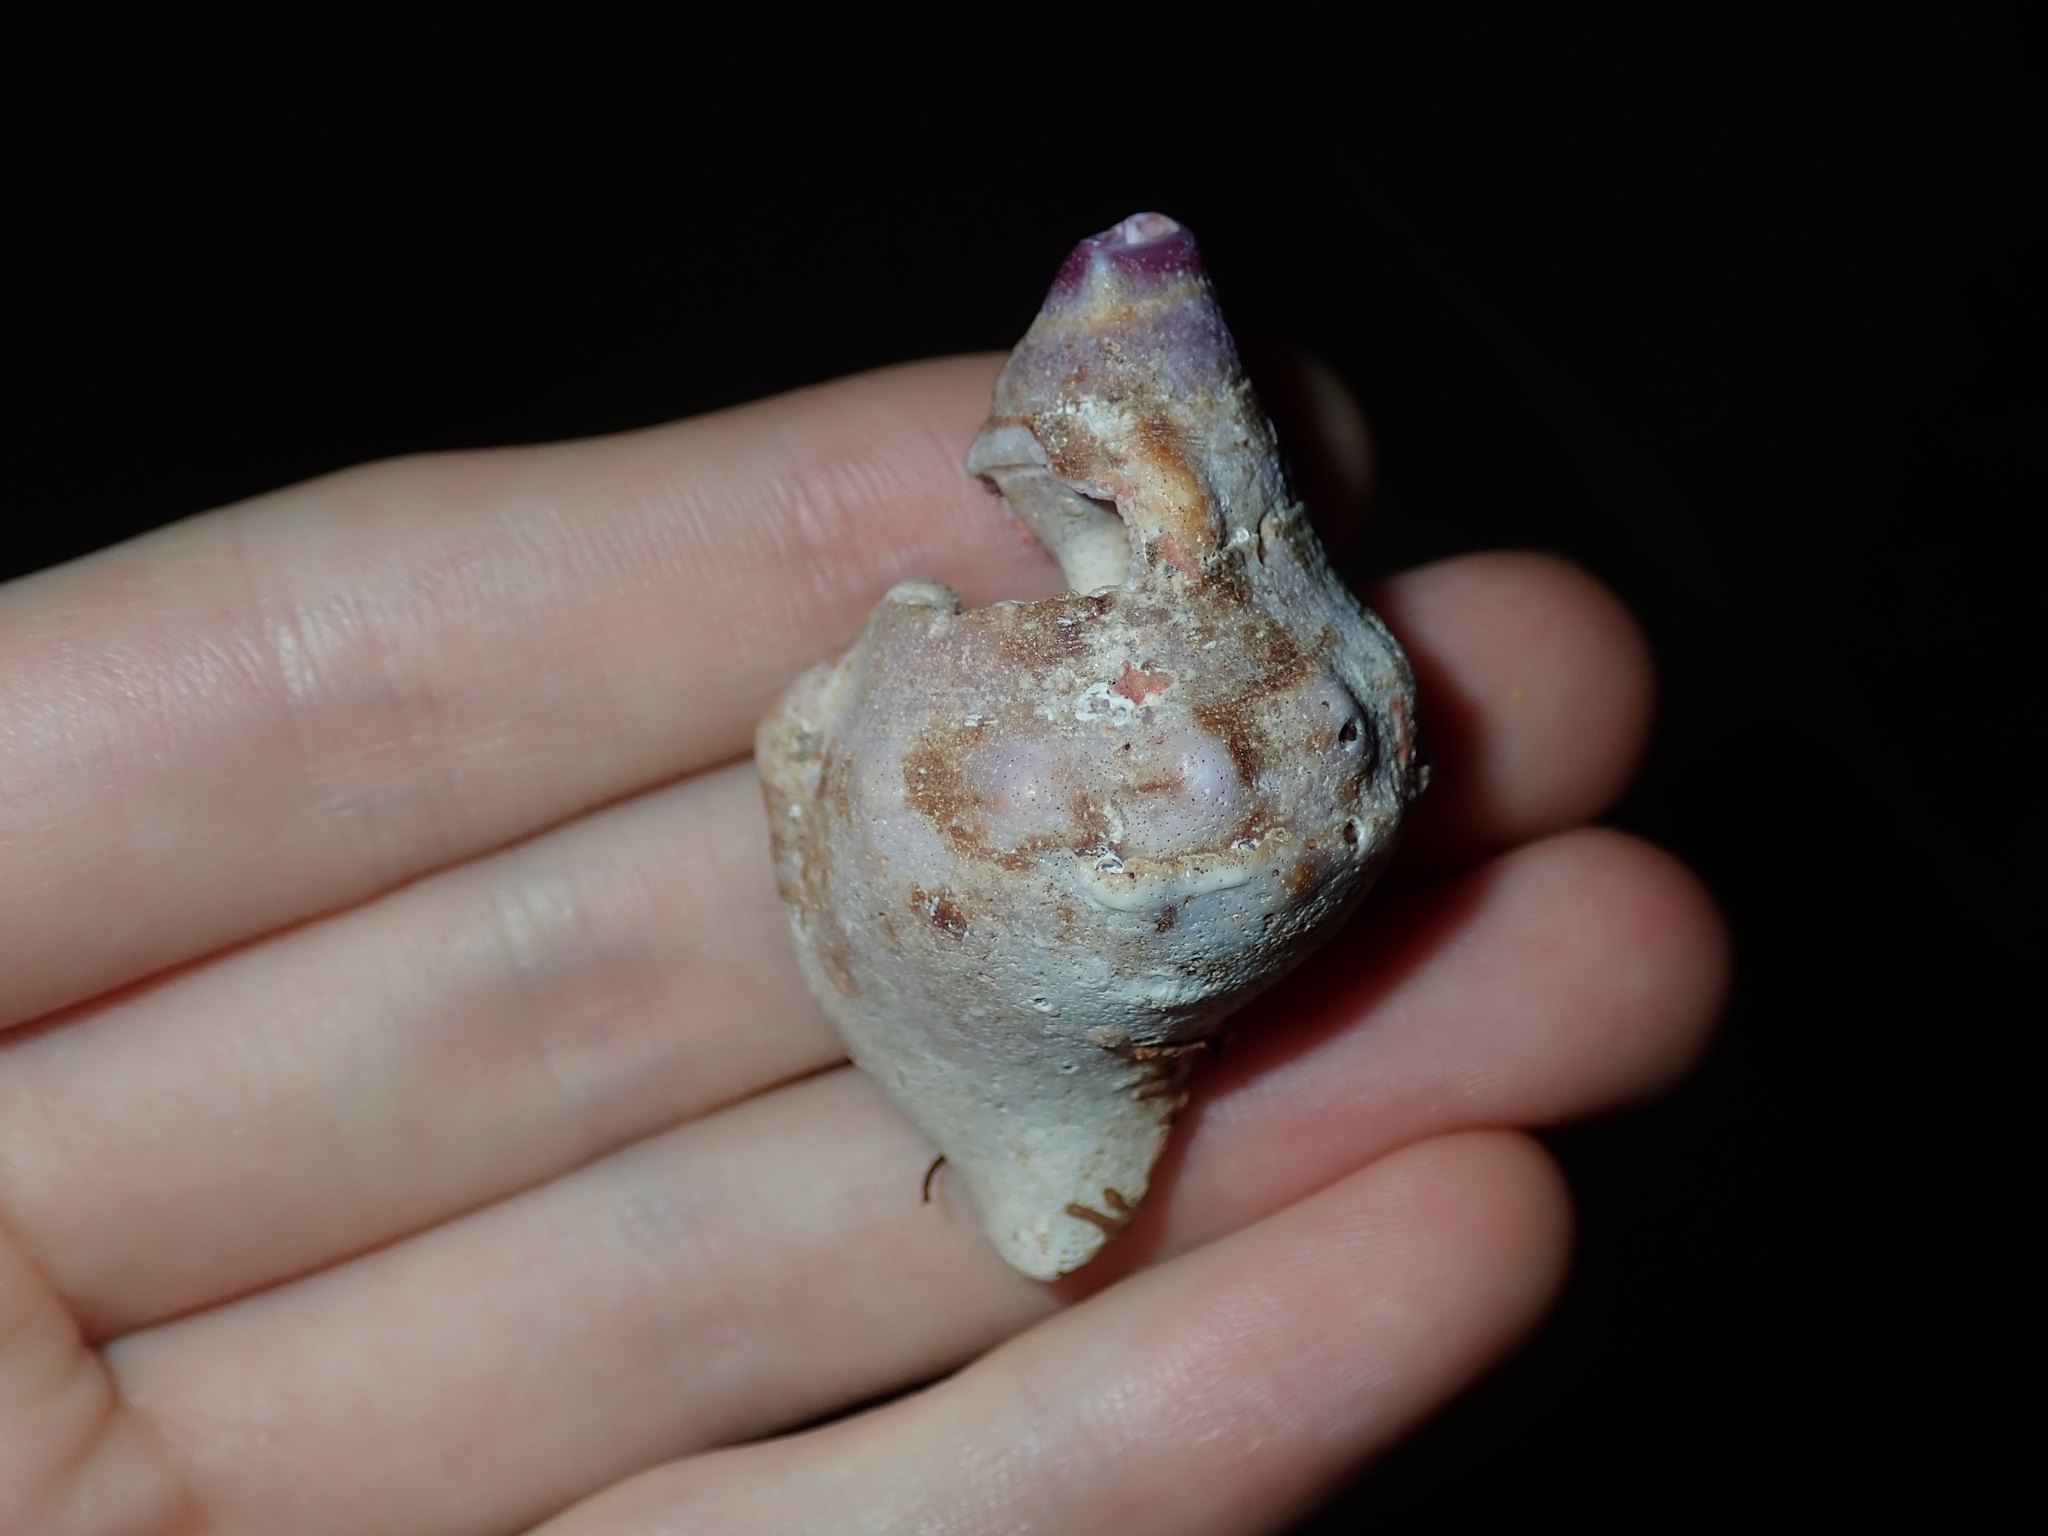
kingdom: Animalia
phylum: Mollusca
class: Gastropoda
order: Littorinimorpha
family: Charoniidae
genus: Charonia
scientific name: Charonia lampas
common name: Knobbed triton
